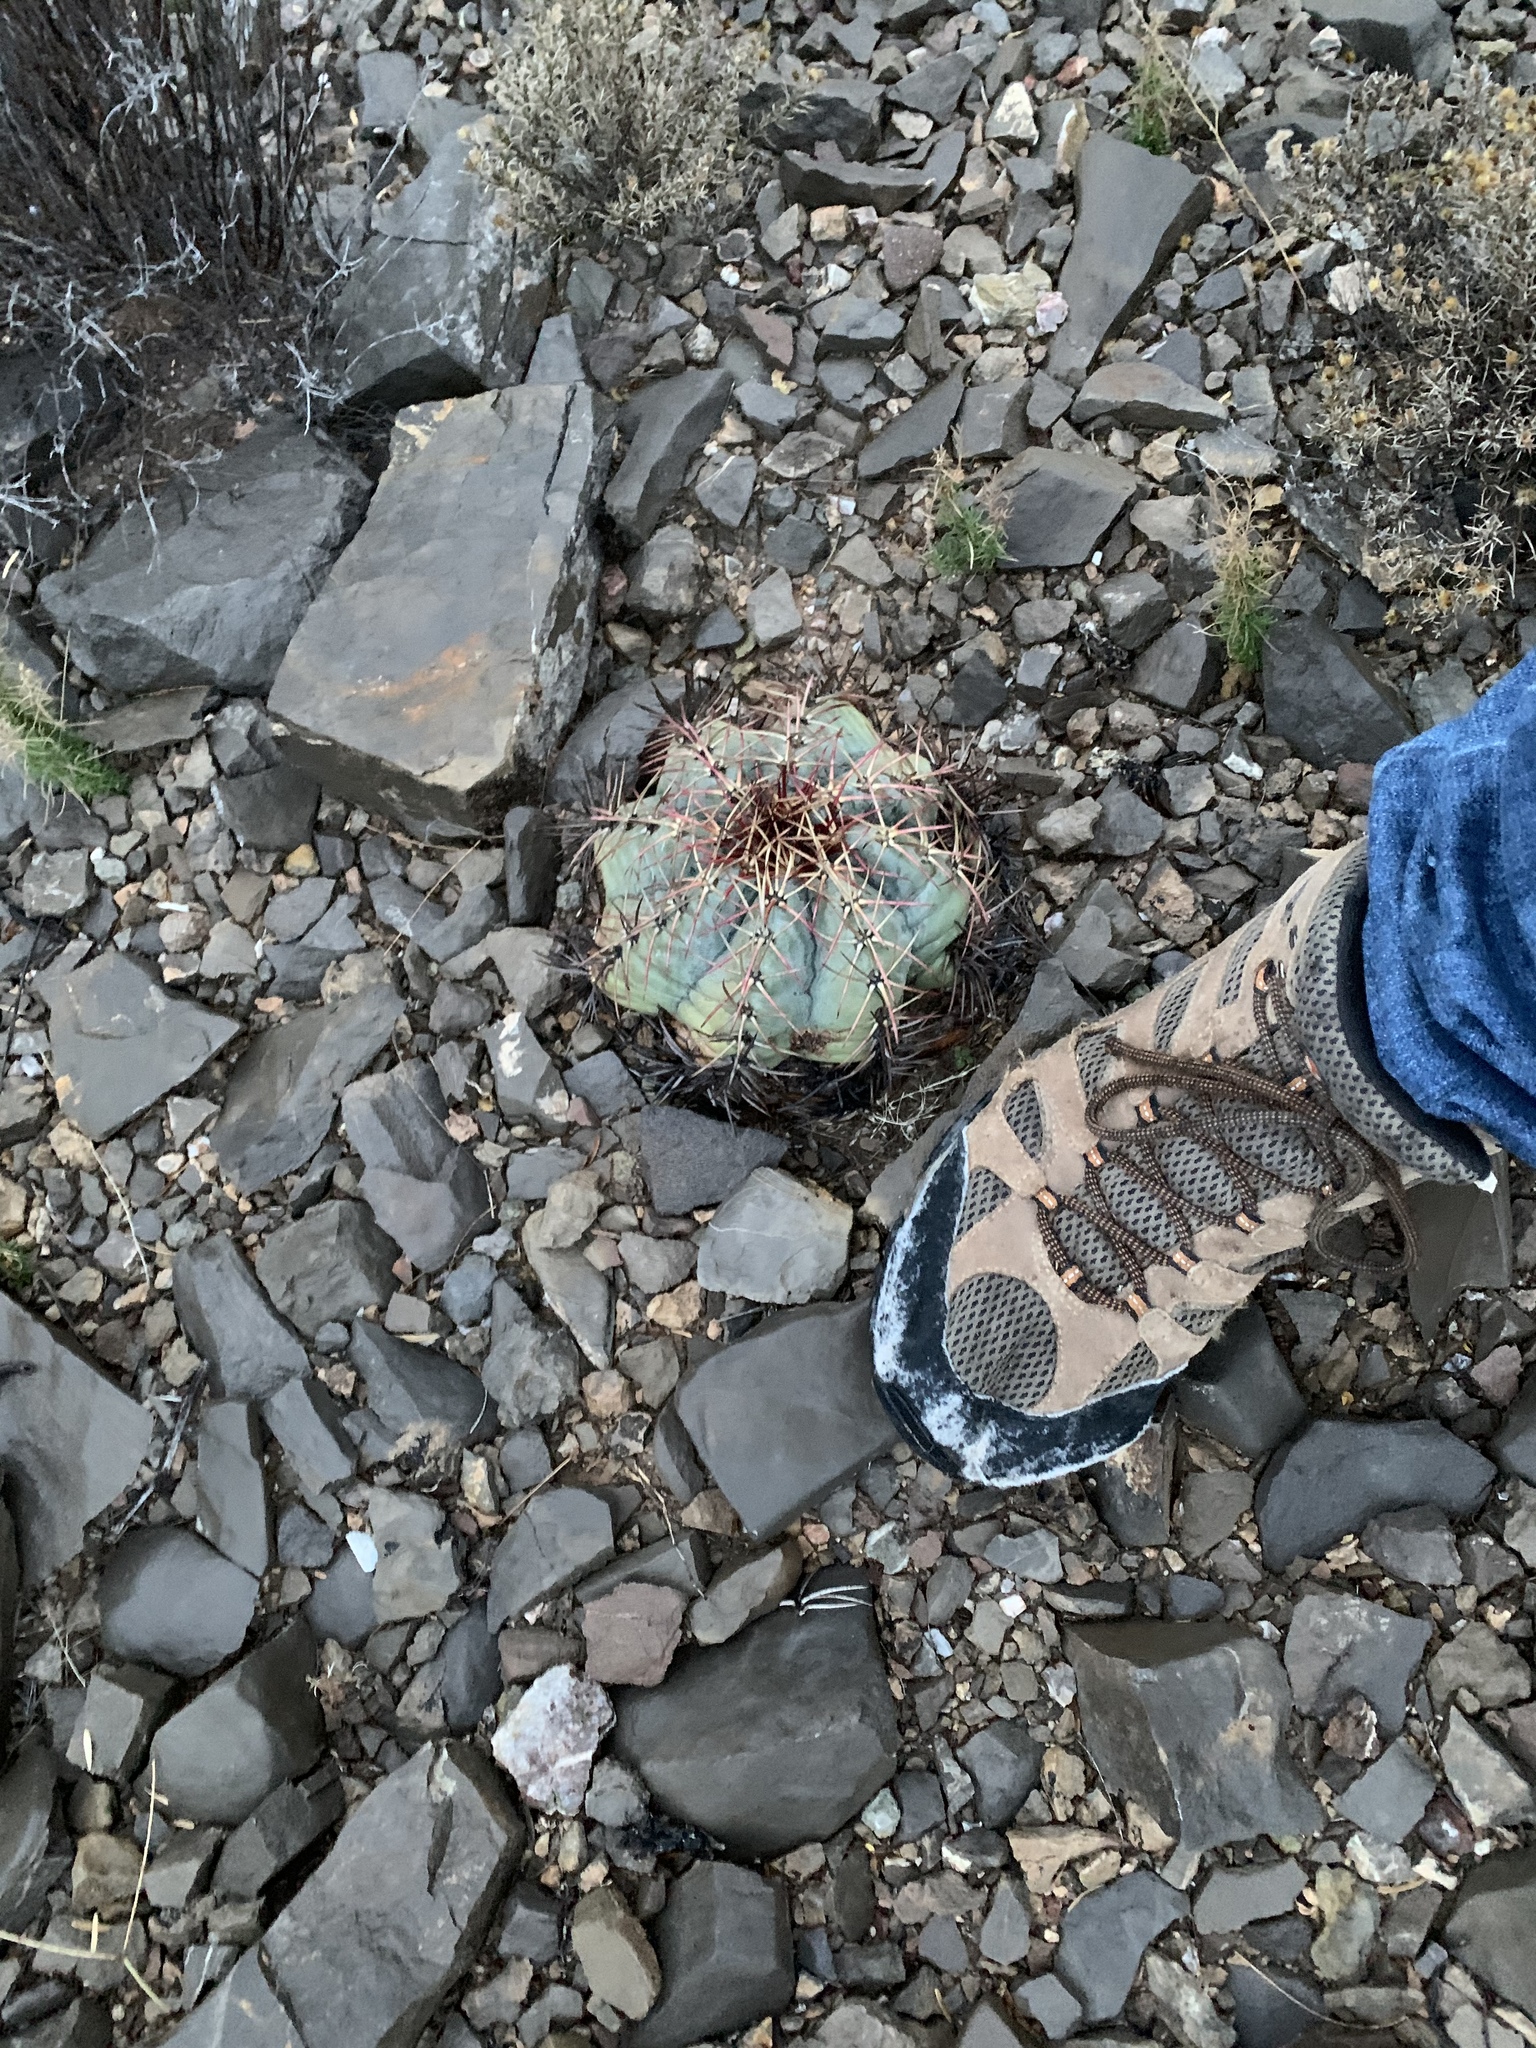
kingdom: Plantae
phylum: Tracheophyta
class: Magnoliopsida
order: Caryophyllales
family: Cactaceae
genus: Echinocactus
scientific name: Echinocactus horizonthalonius
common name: Devilshead
